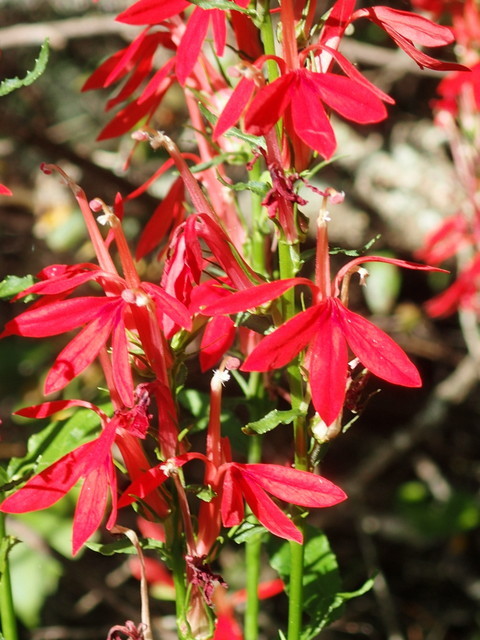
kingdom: Plantae
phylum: Tracheophyta
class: Magnoliopsida
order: Asterales
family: Campanulaceae
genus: Lobelia
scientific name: Lobelia cardinalis
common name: Cardinal flower
